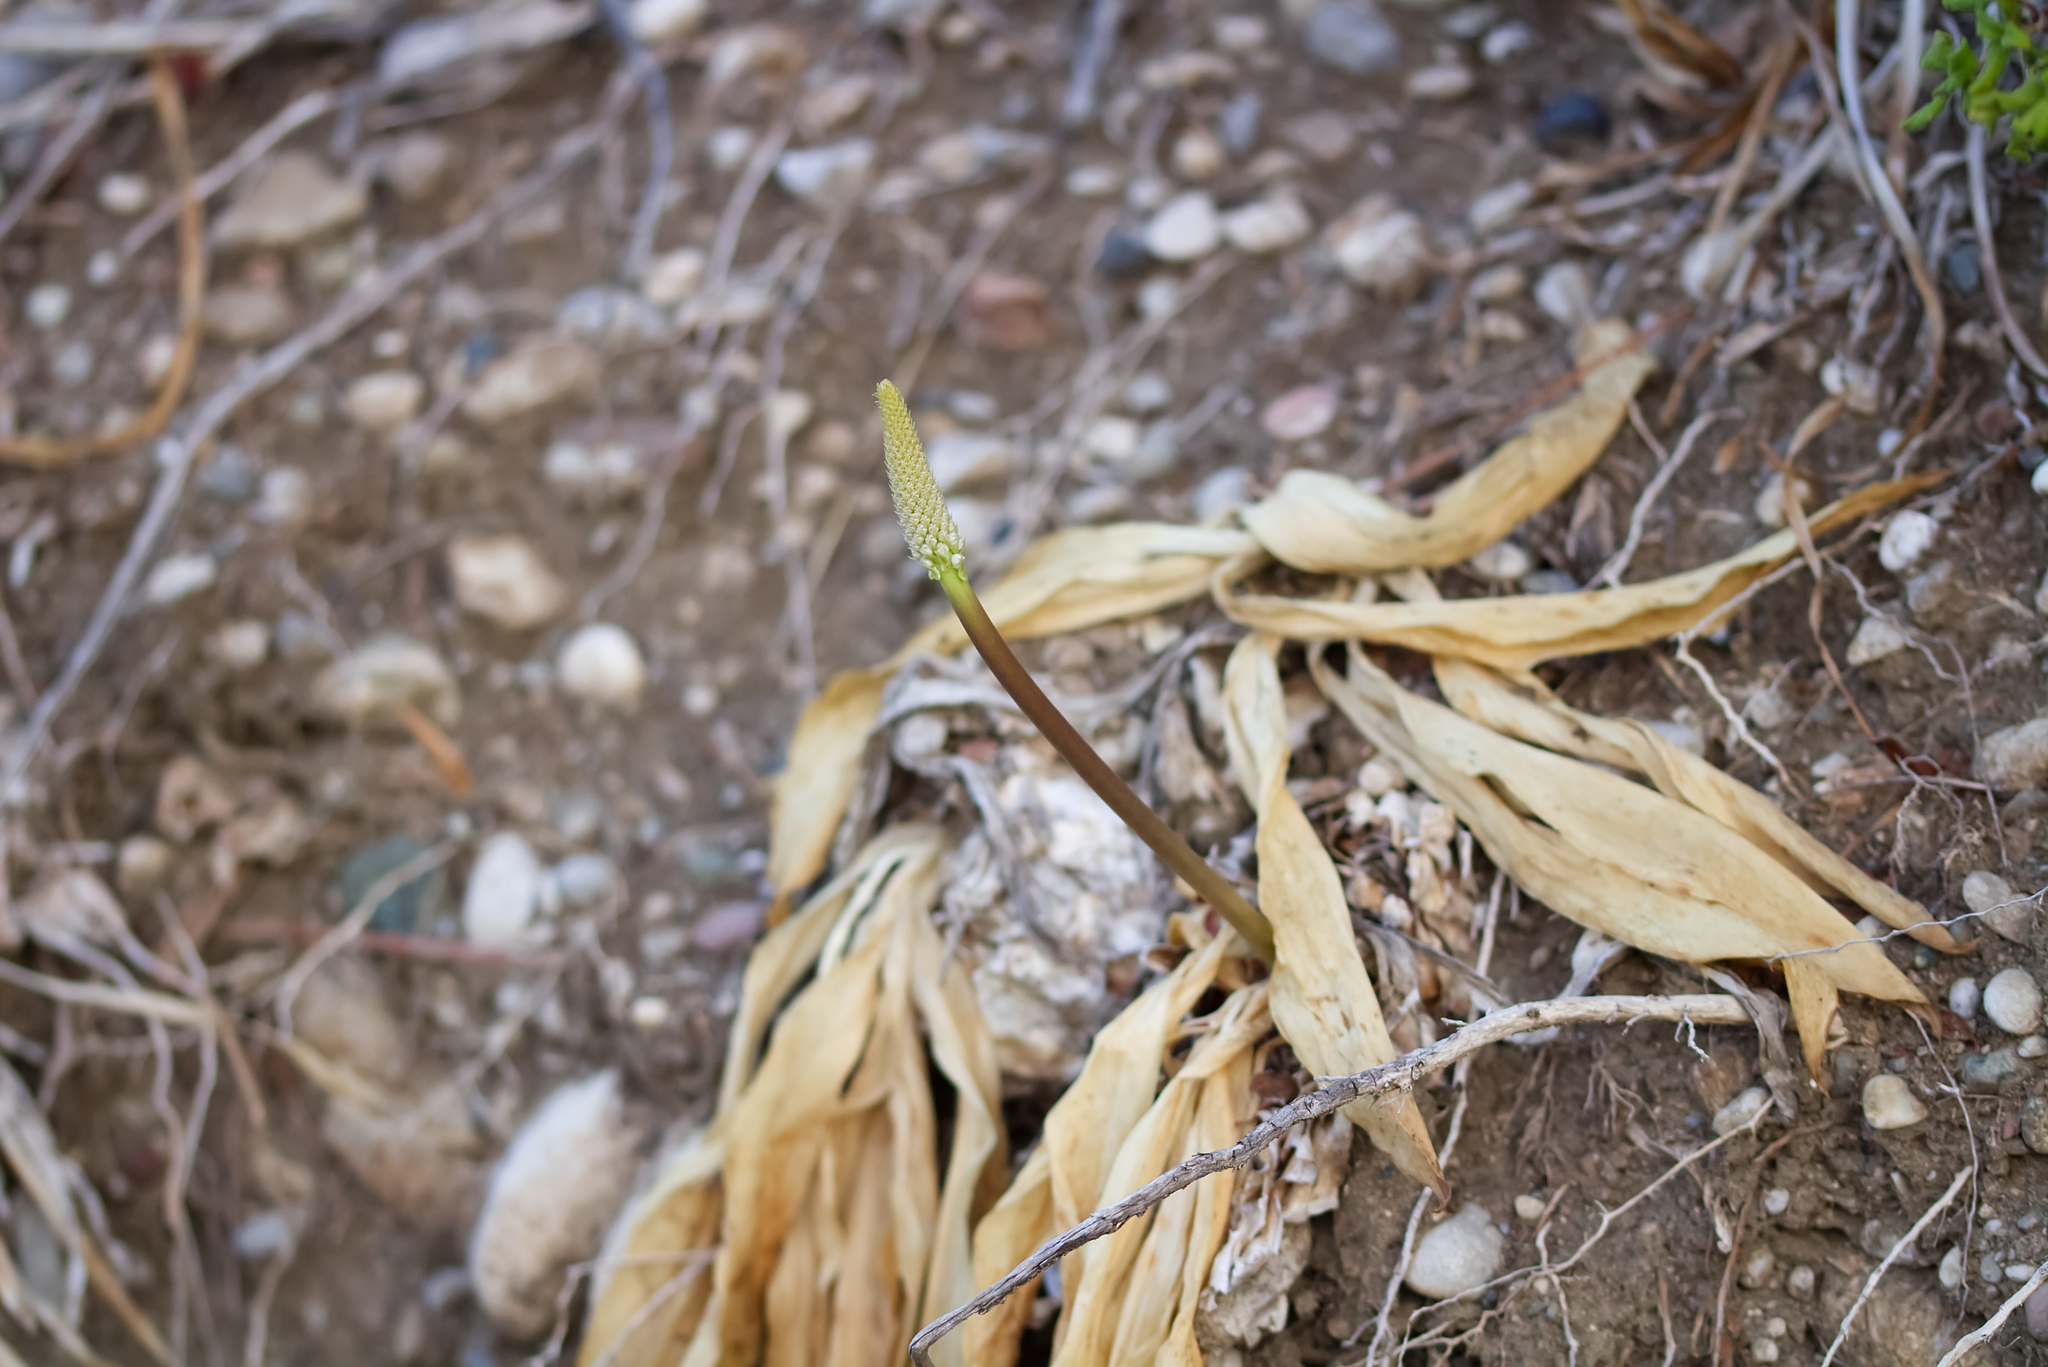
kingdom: Plantae
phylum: Tracheophyta
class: Liliopsida
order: Asparagales
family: Asparagaceae
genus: Drimia
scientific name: Drimia aphylla
